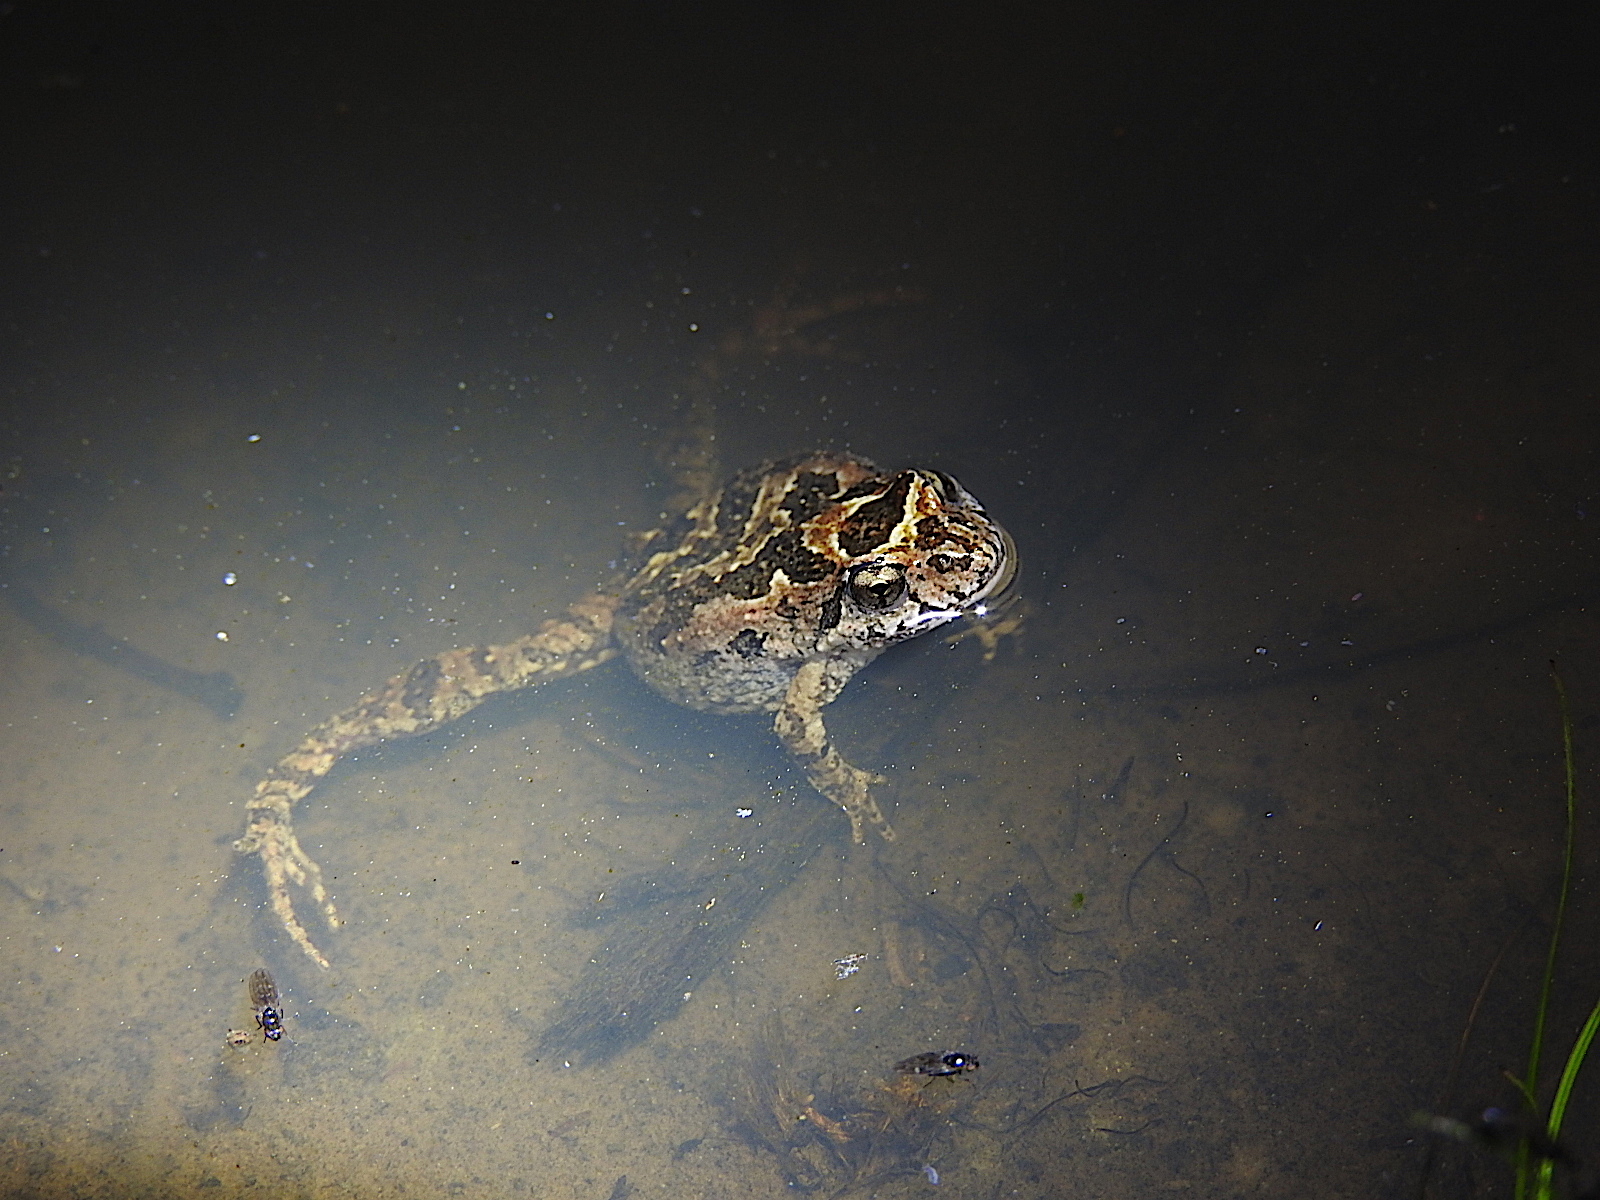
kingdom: Animalia
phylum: Chordata
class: Amphibia
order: Anura
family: Myobatrachidae
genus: Crinia
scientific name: Crinia signifera
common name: Brown froglet
